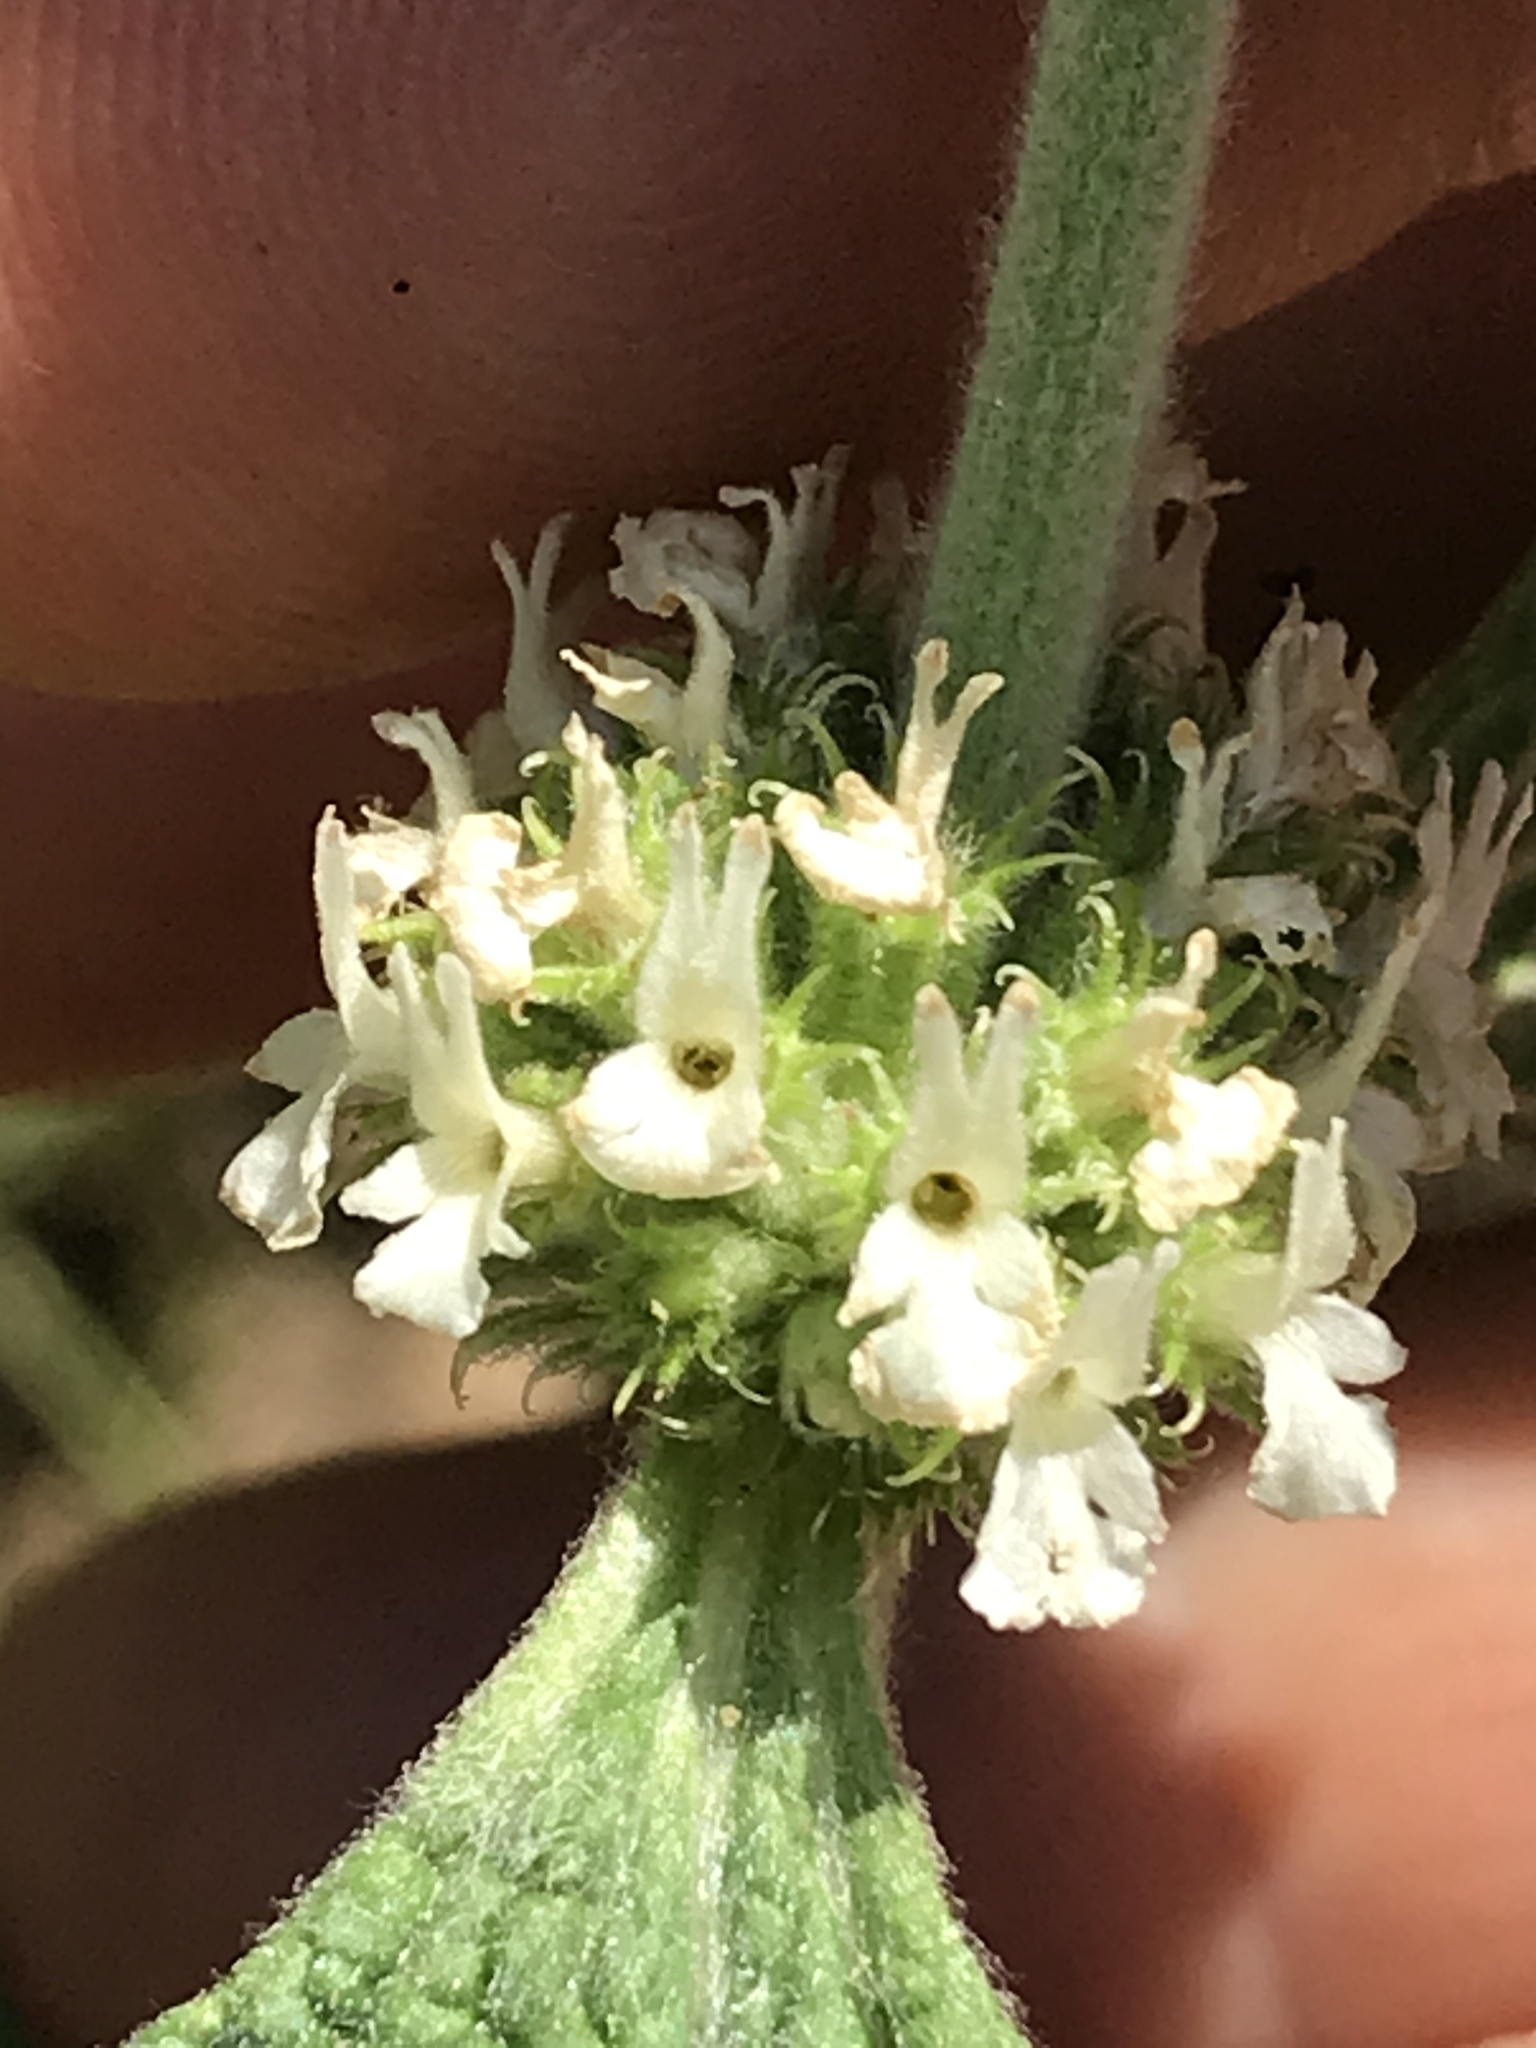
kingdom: Plantae
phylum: Tracheophyta
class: Magnoliopsida
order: Lamiales
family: Lamiaceae
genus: Marrubium
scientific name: Marrubium vulgare
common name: Horehound
